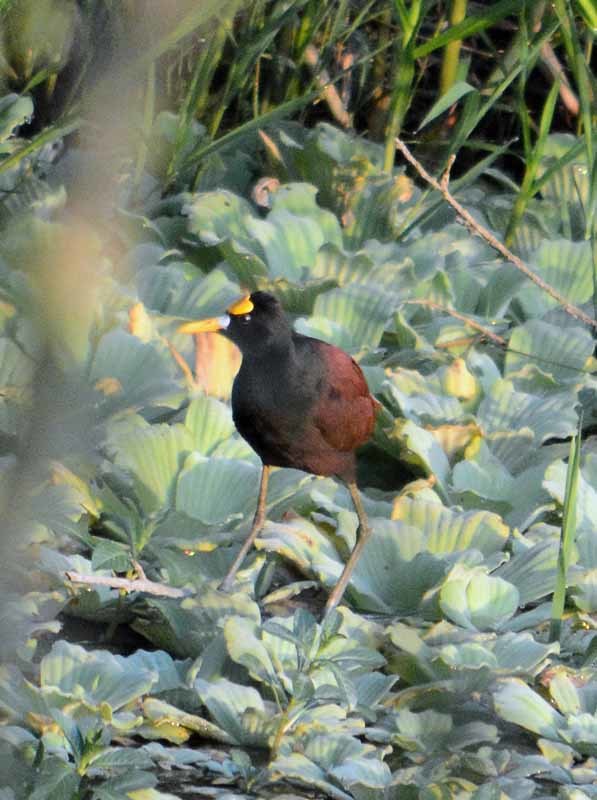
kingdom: Animalia
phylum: Chordata
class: Aves
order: Charadriiformes
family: Jacanidae
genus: Jacana
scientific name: Jacana spinosa
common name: Northern jacana
